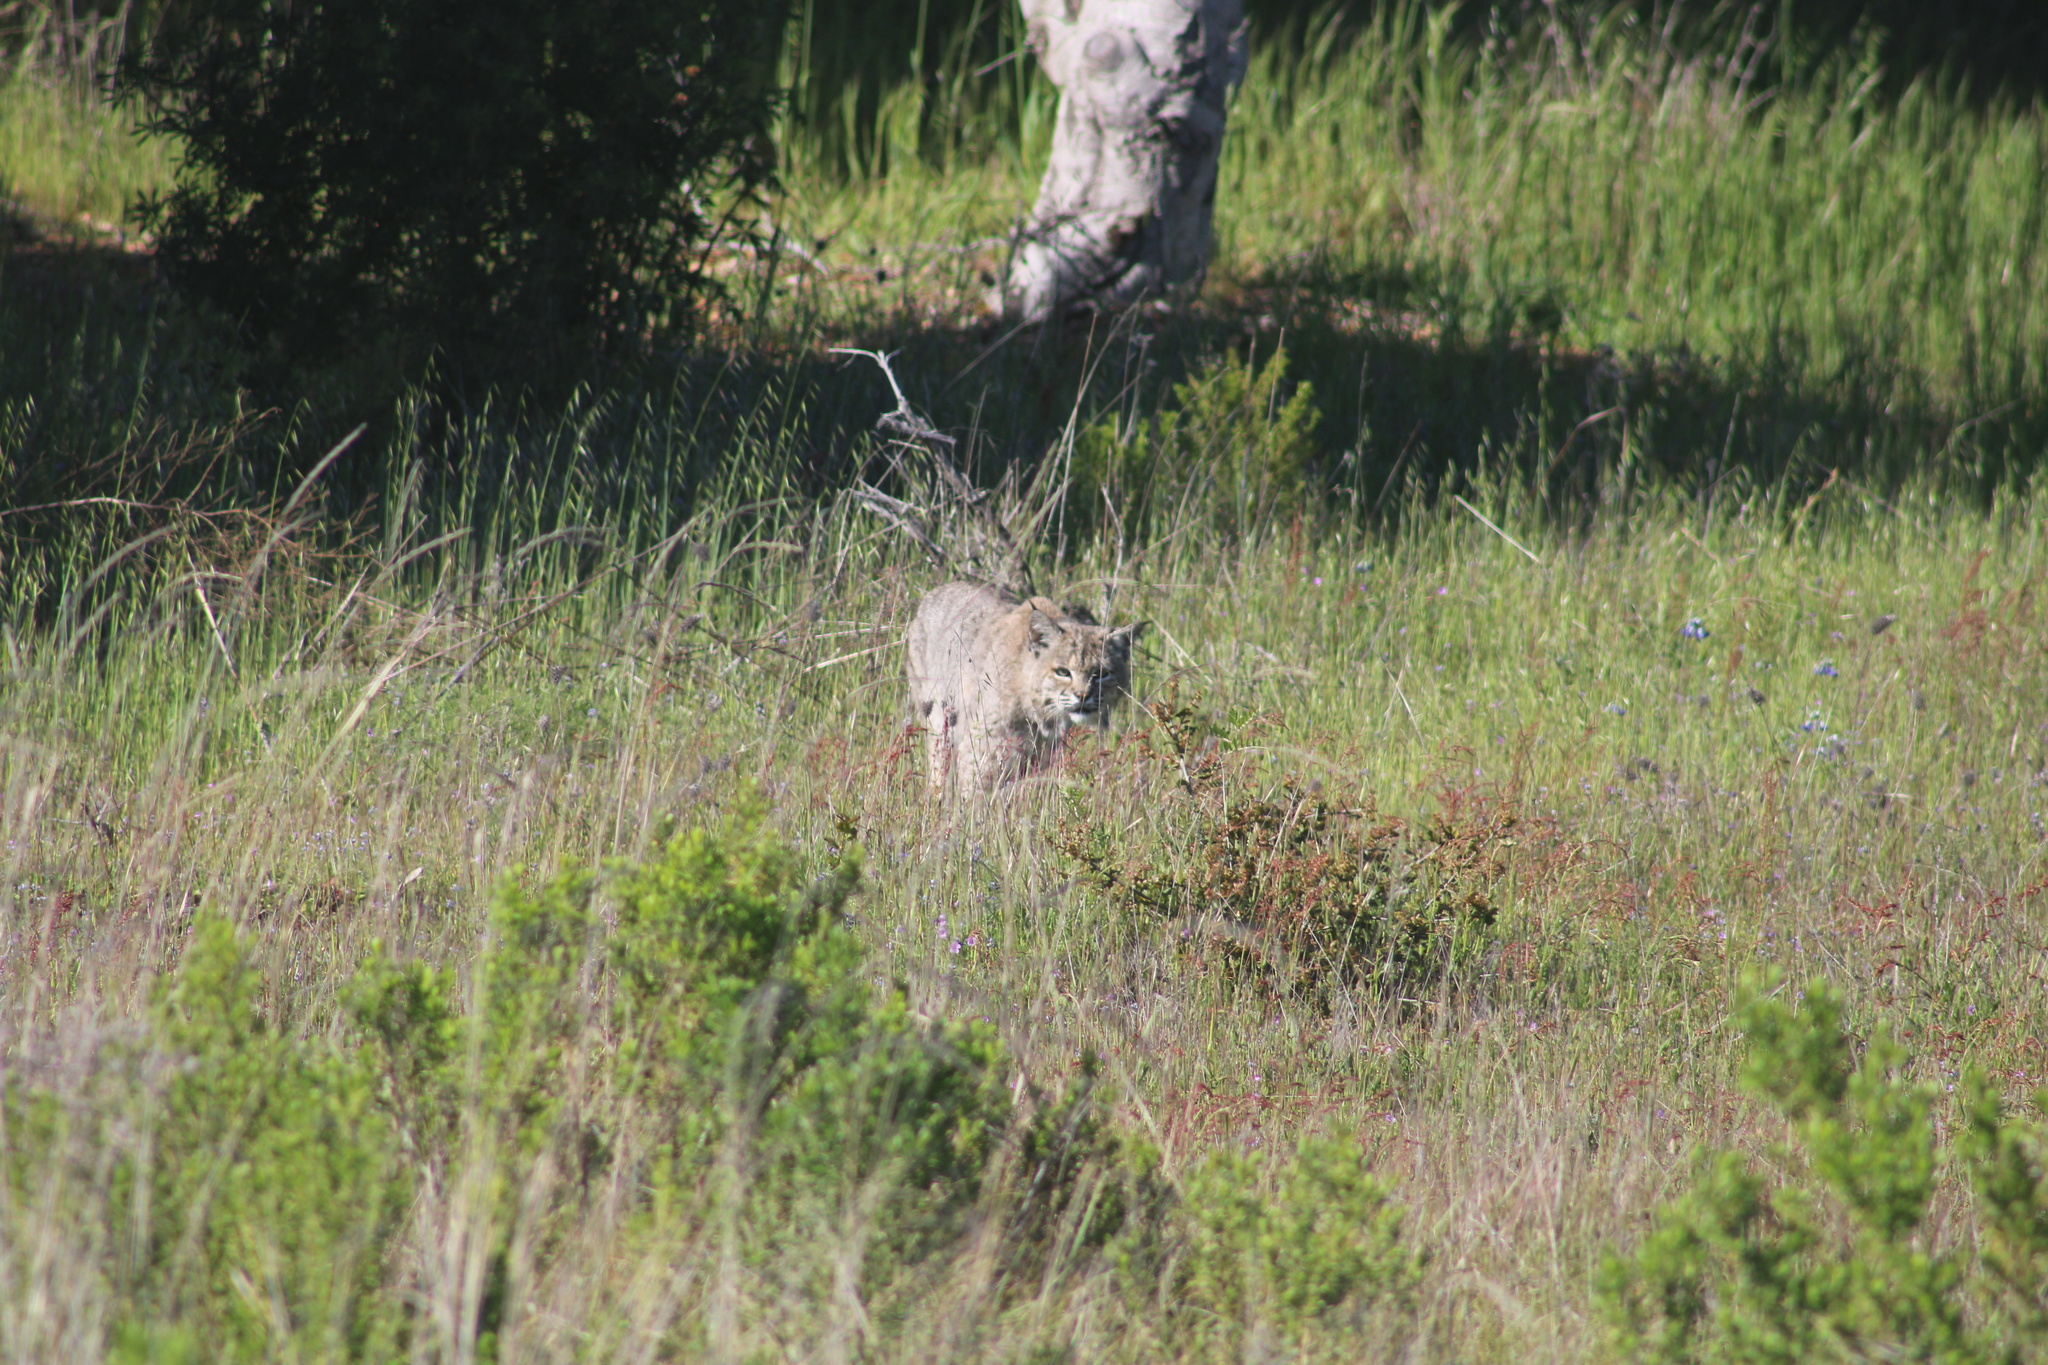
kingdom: Animalia
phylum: Chordata
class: Mammalia
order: Carnivora
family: Felidae
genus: Lynx
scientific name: Lynx rufus
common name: Bobcat
